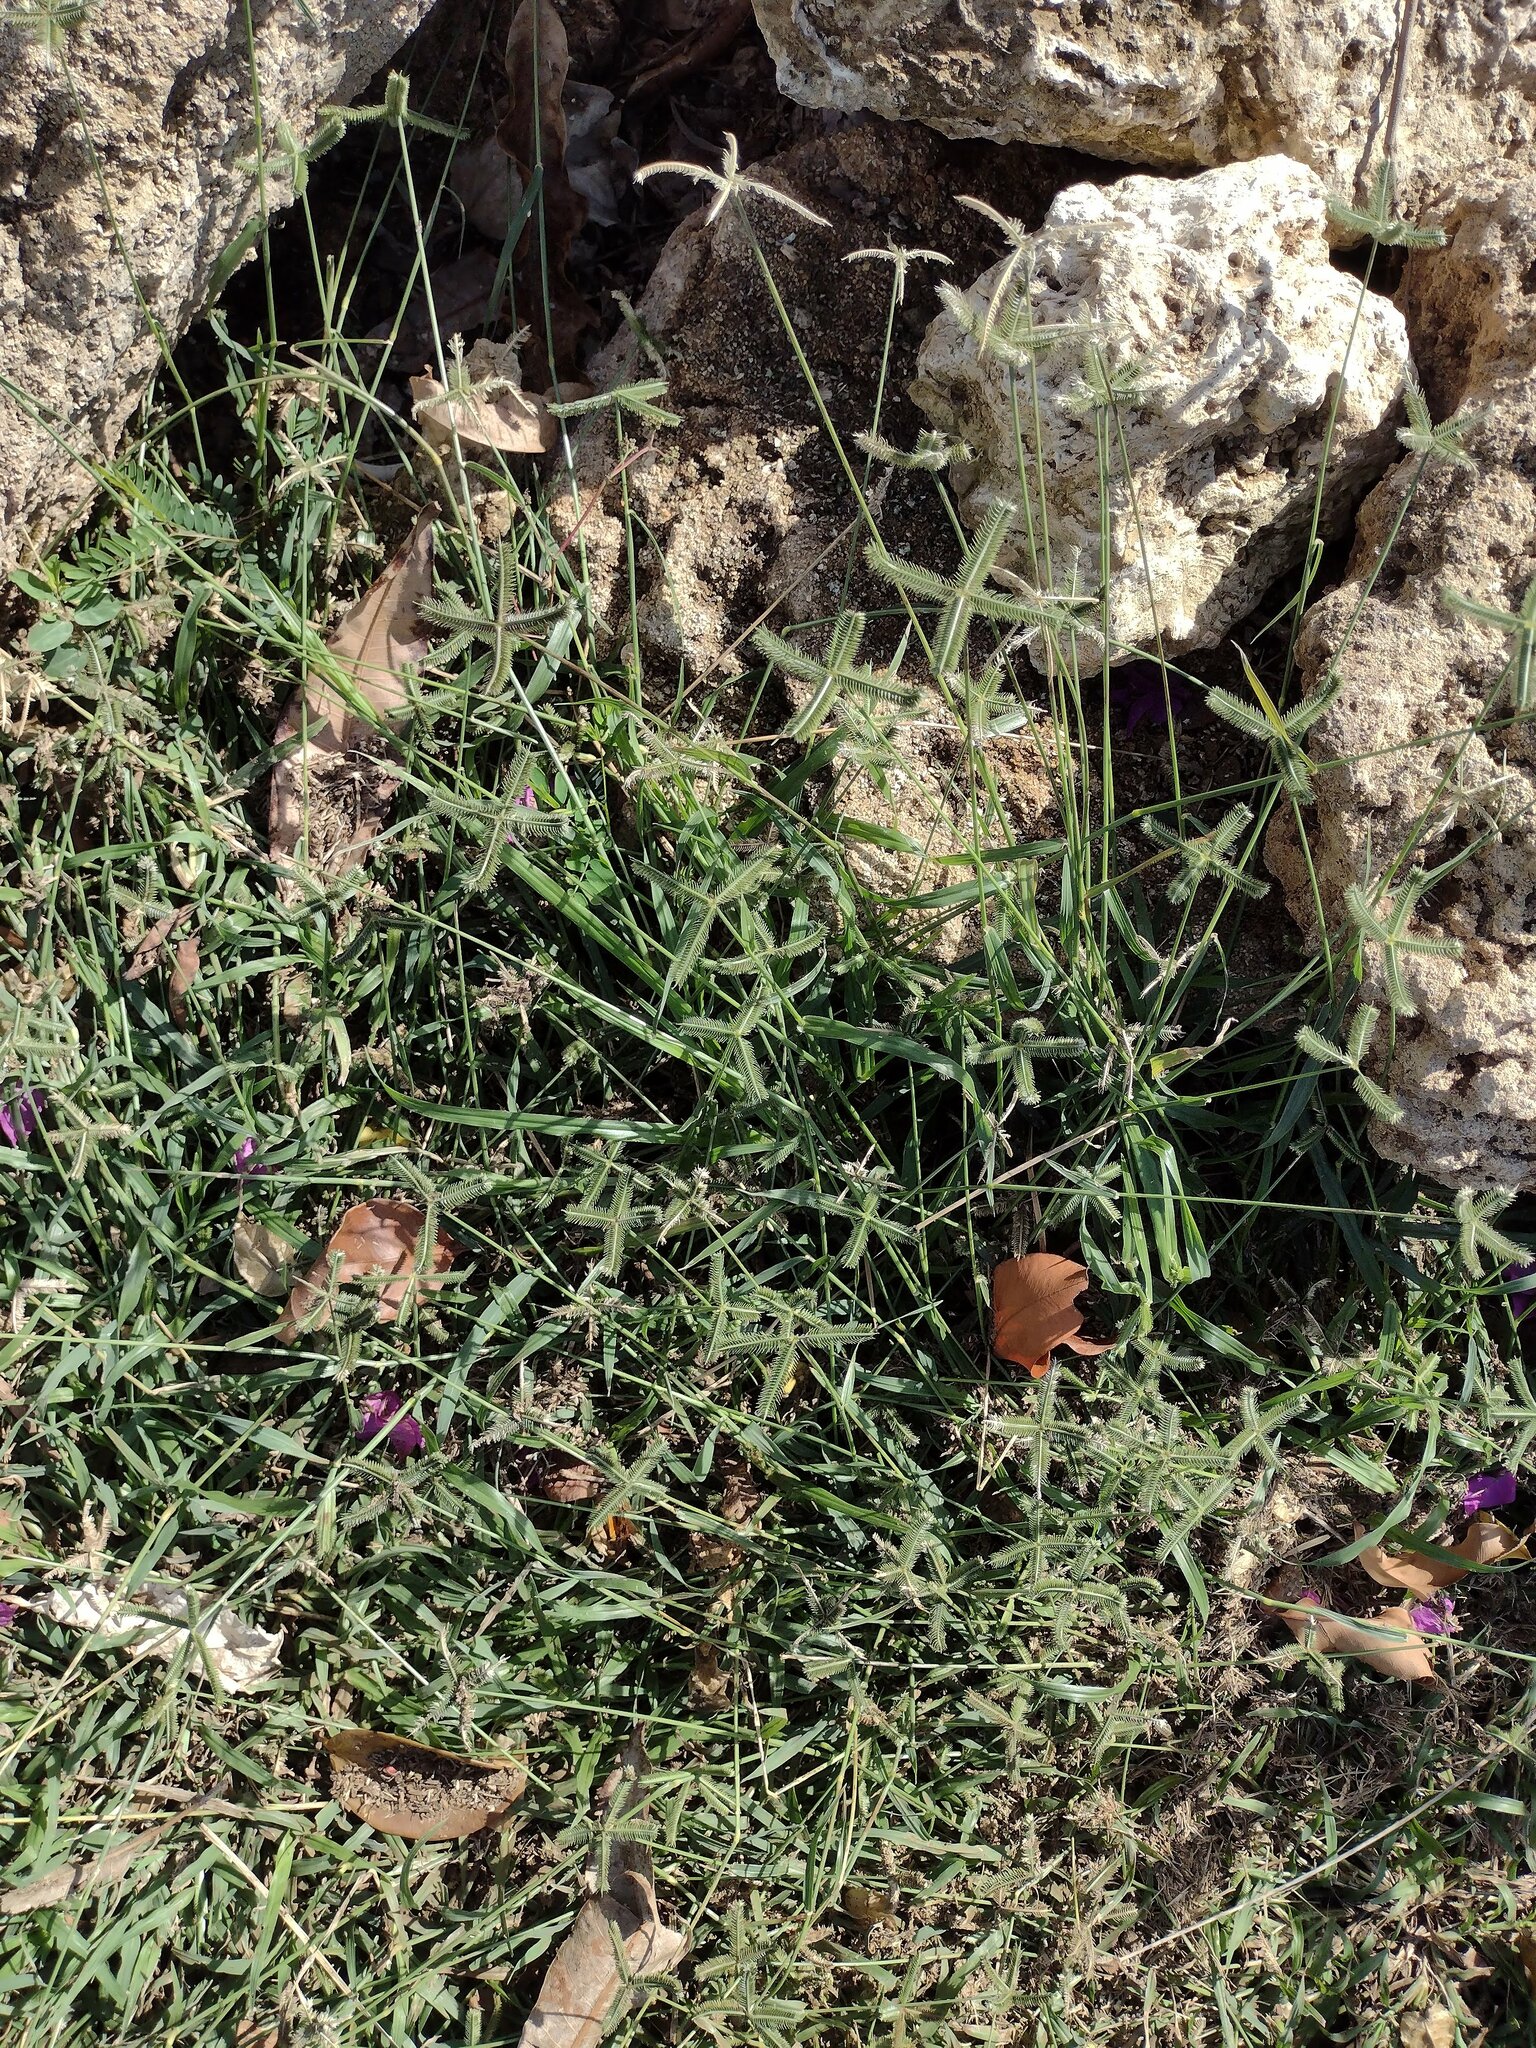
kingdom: Plantae
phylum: Tracheophyta
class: Liliopsida
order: Poales
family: Poaceae
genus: Dactyloctenium
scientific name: Dactyloctenium aegyptium
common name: Egyptian grass
